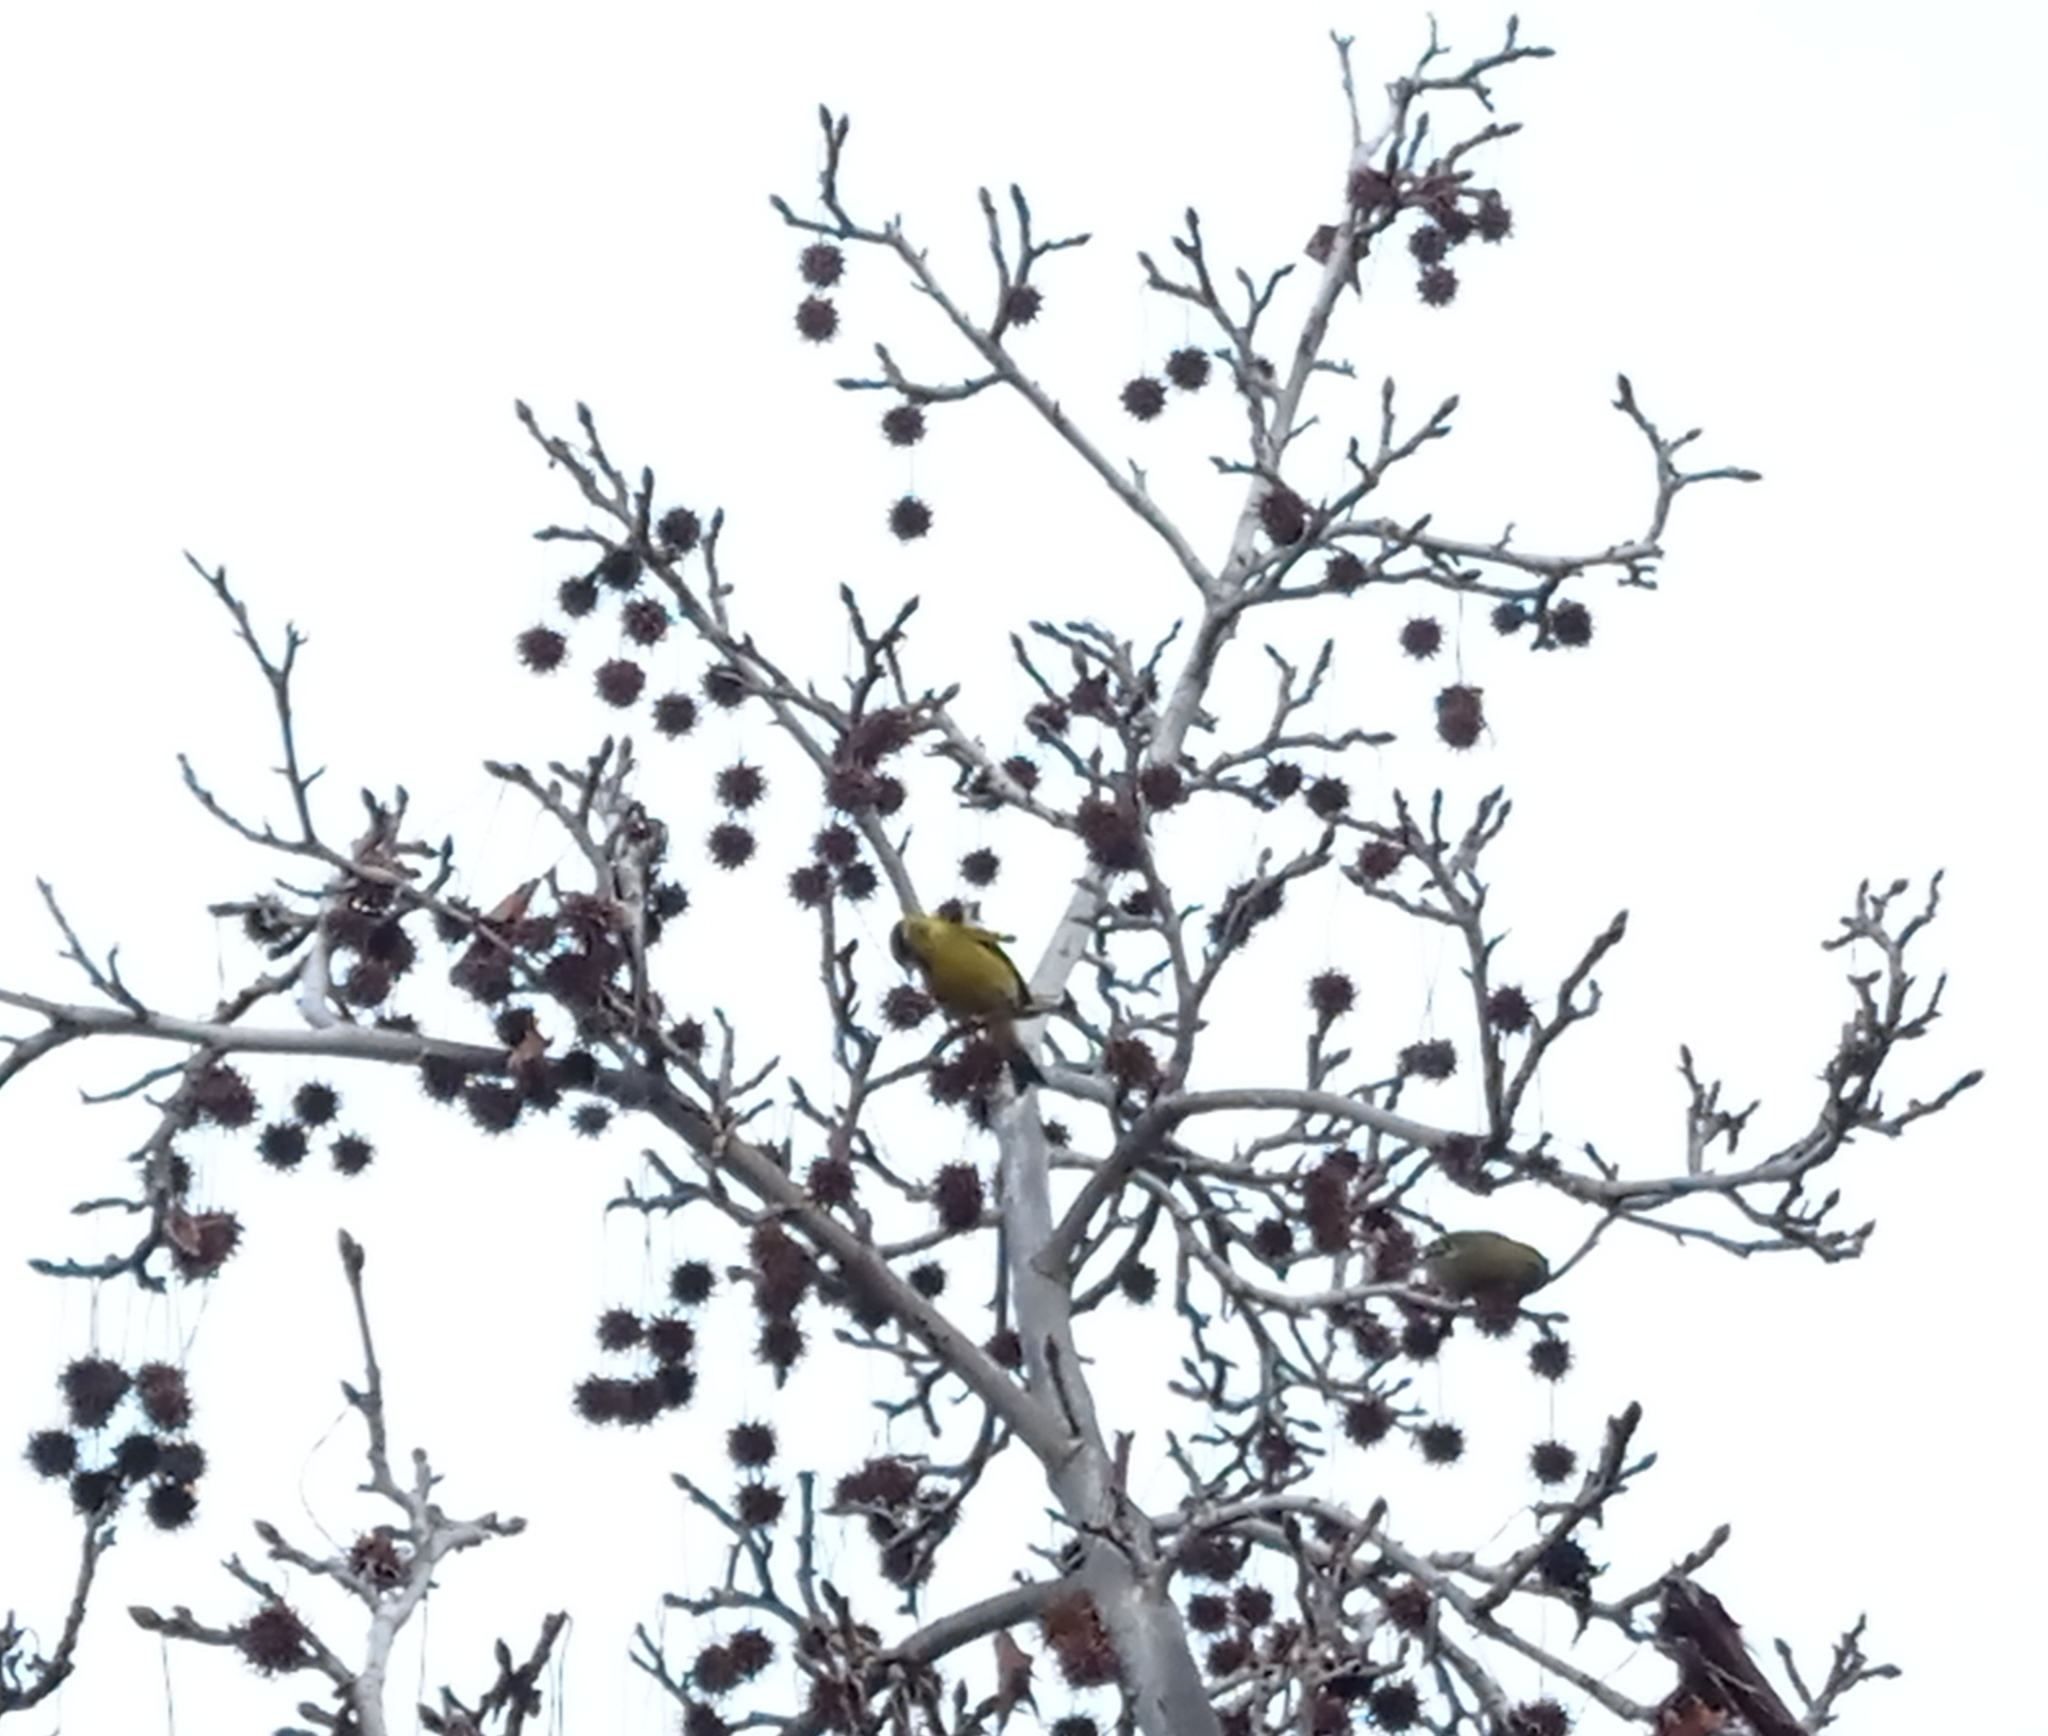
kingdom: Animalia
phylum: Chordata
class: Aves
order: Passeriformes
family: Fringillidae
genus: Spinus
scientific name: Spinus barbatus
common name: Black-chinned siskin
